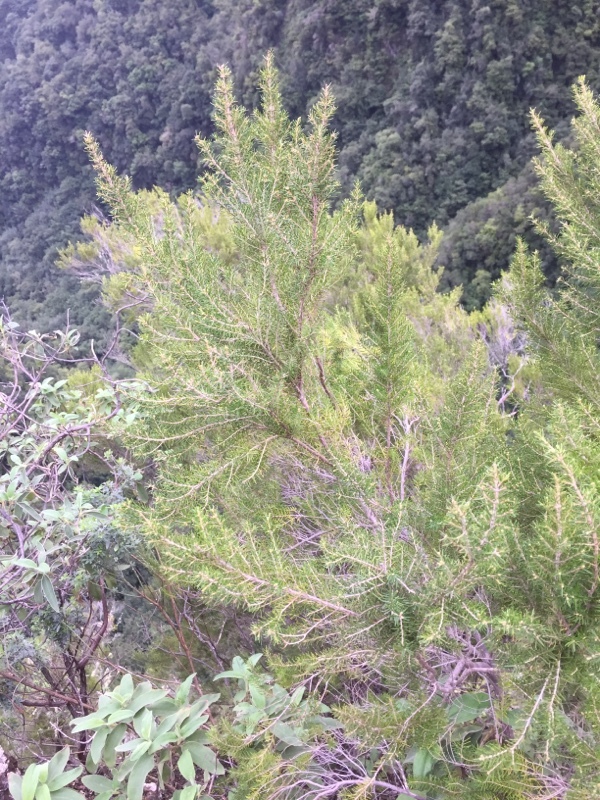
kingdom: Plantae
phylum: Tracheophyta
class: Magnoliopsida
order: Ericales
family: Ericaceae
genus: Erica
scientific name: Erica canariensis
